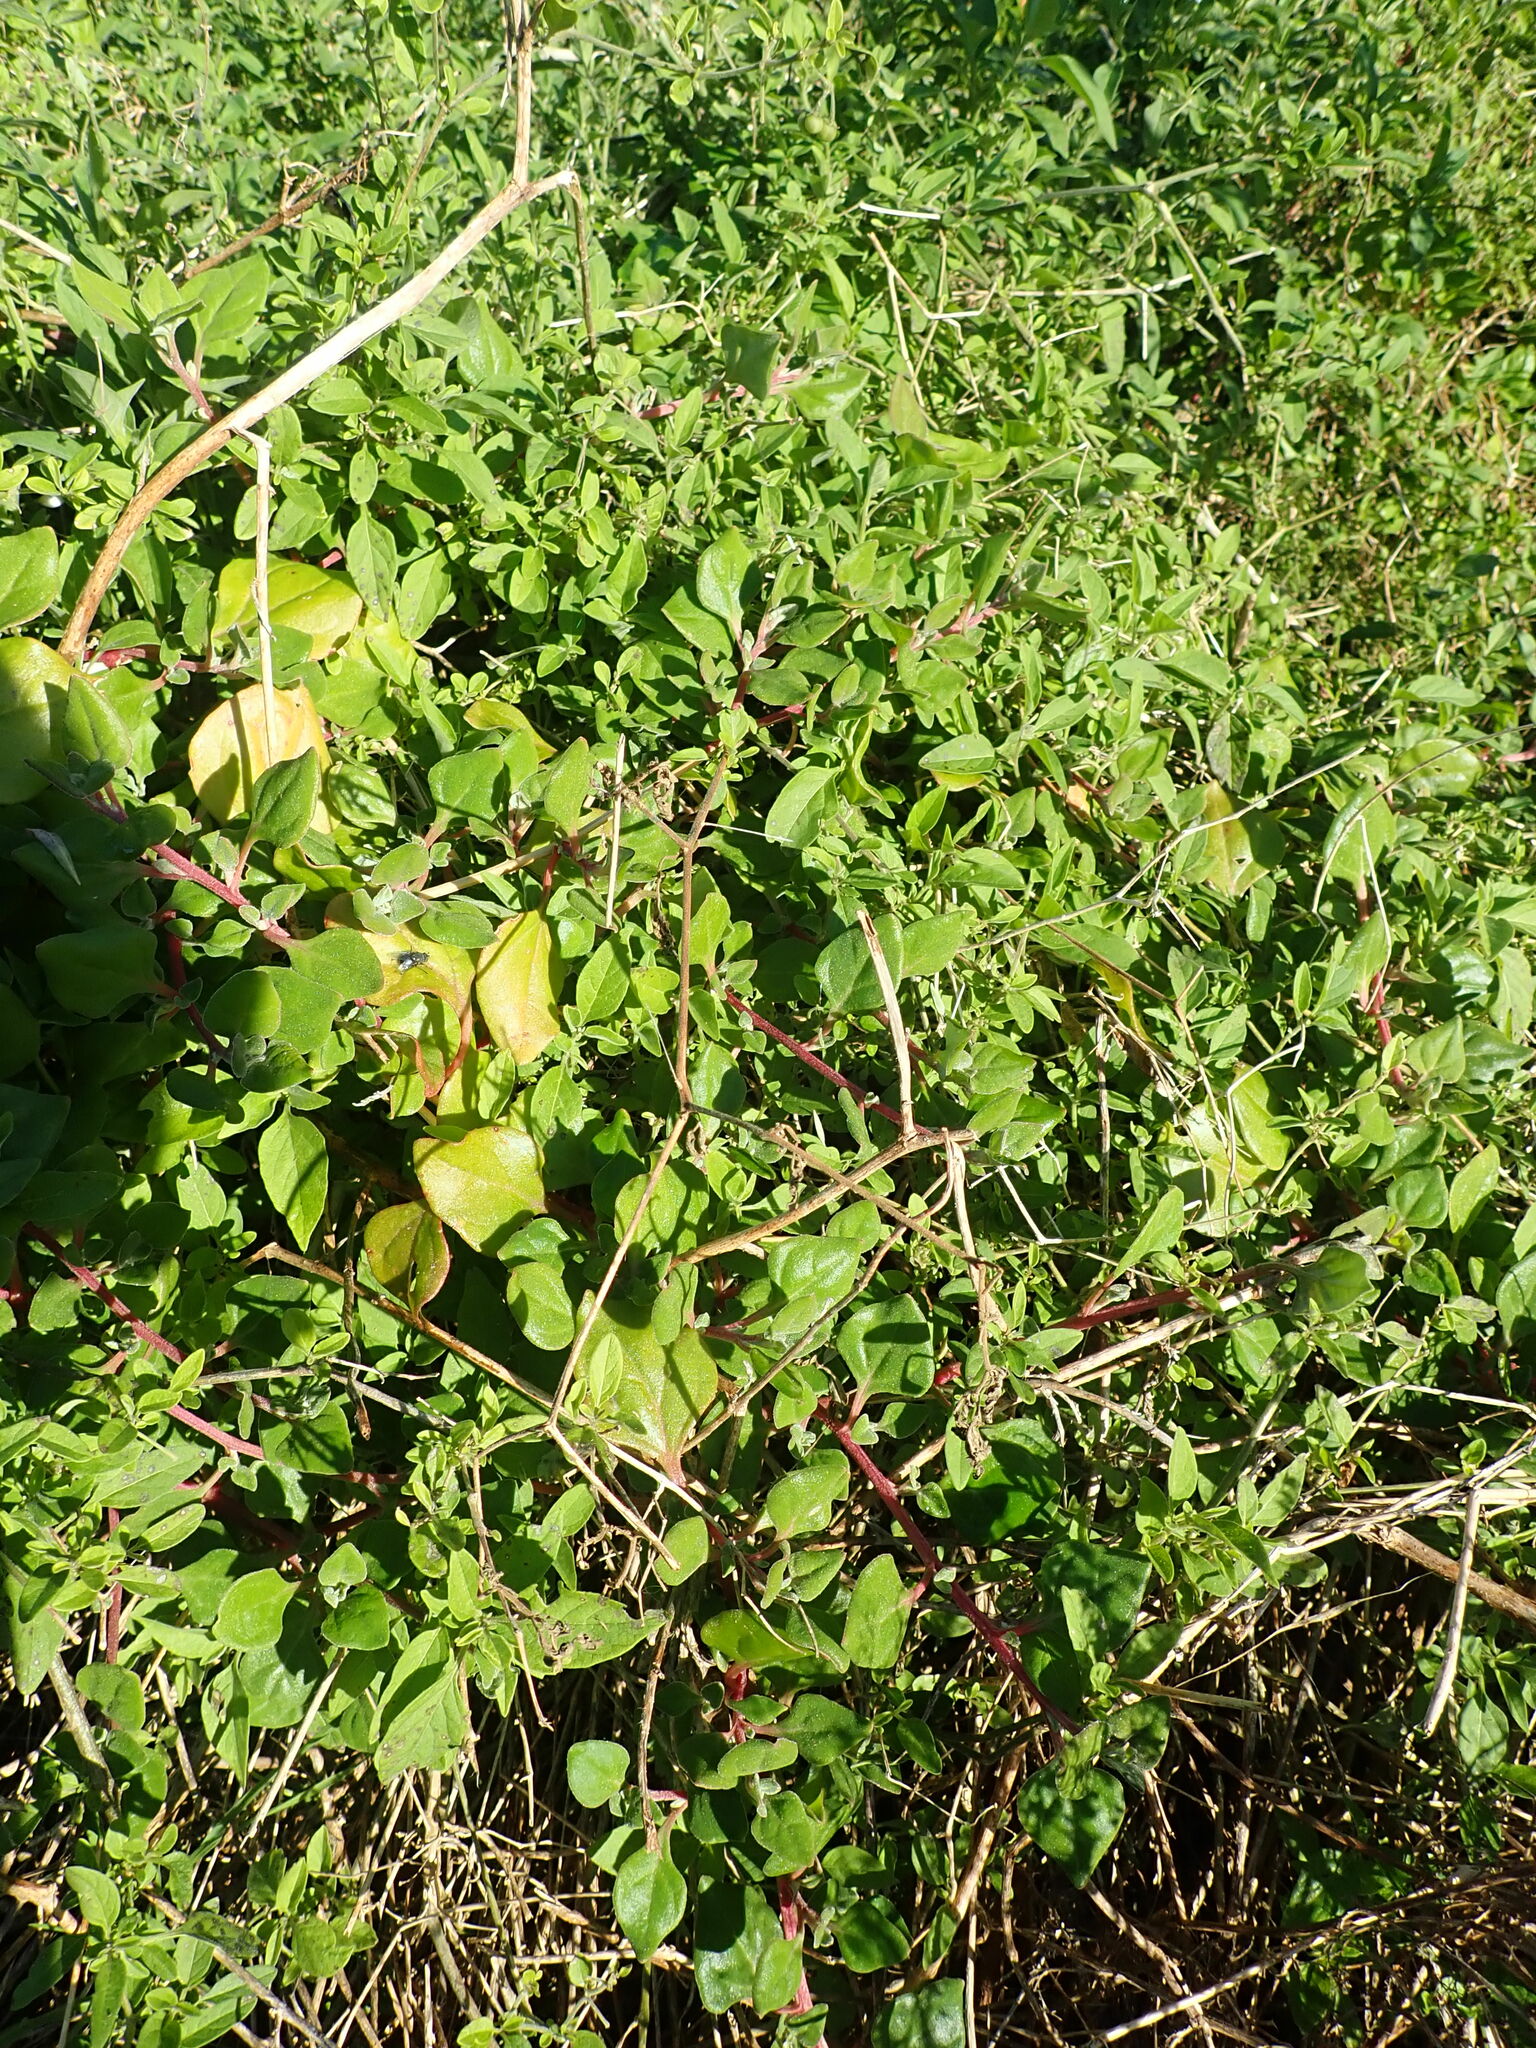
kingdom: Plantae
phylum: Tracheophyta
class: Magnoliopsida
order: Caryophyllales
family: Aizoaceae
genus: Tetragonia
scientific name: Tetragonia implexicoma
